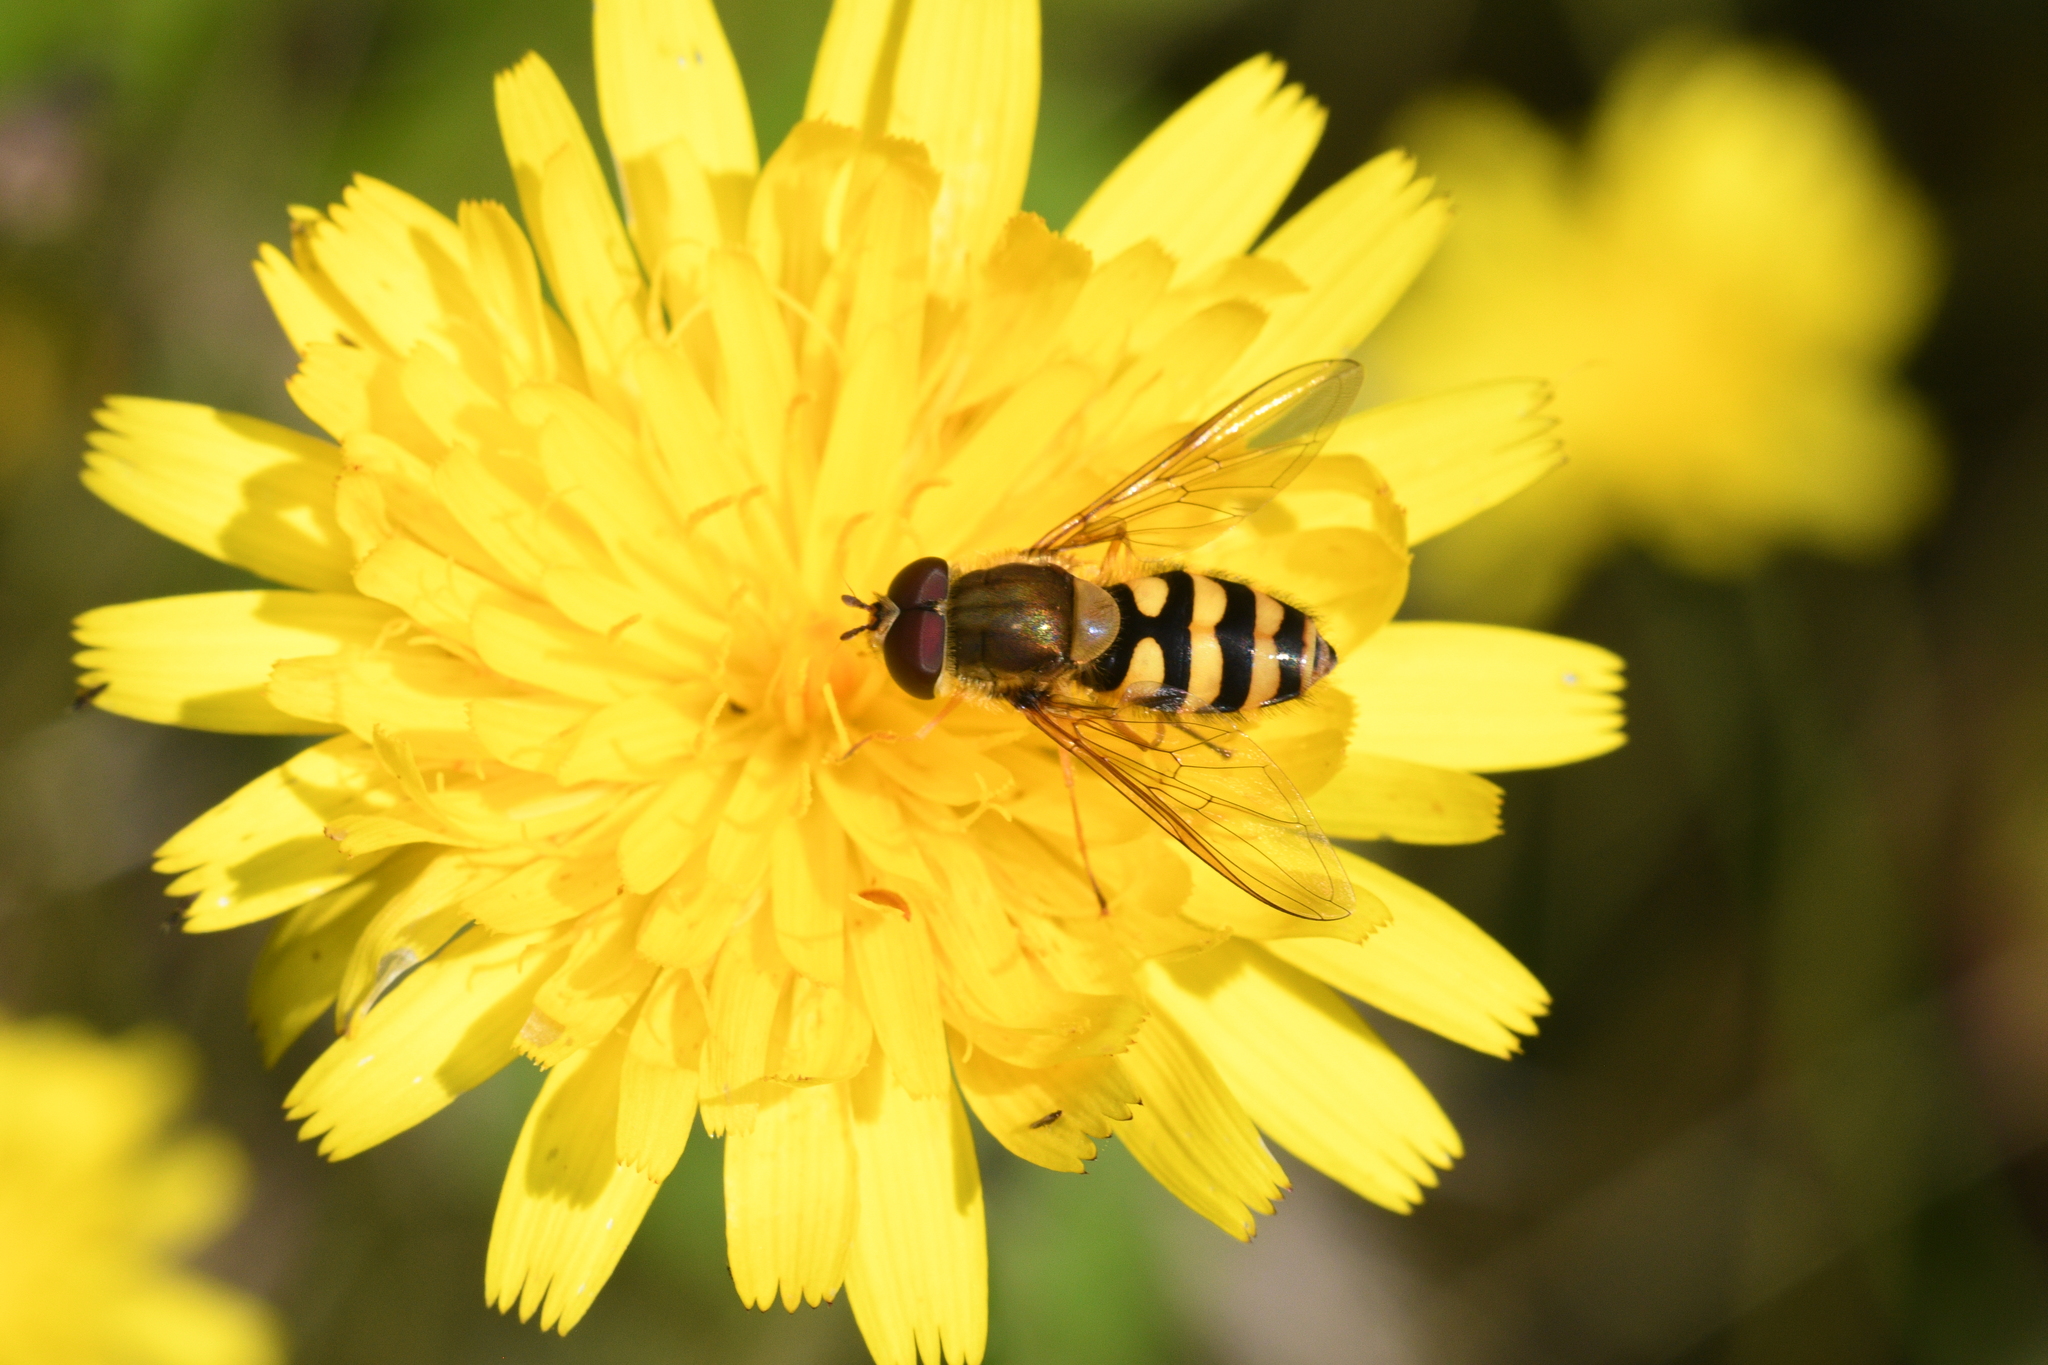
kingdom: Animalia
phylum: Arthropoda
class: Insecta
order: Diptera
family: Syrphidae
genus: Syrphus
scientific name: Syrphus
